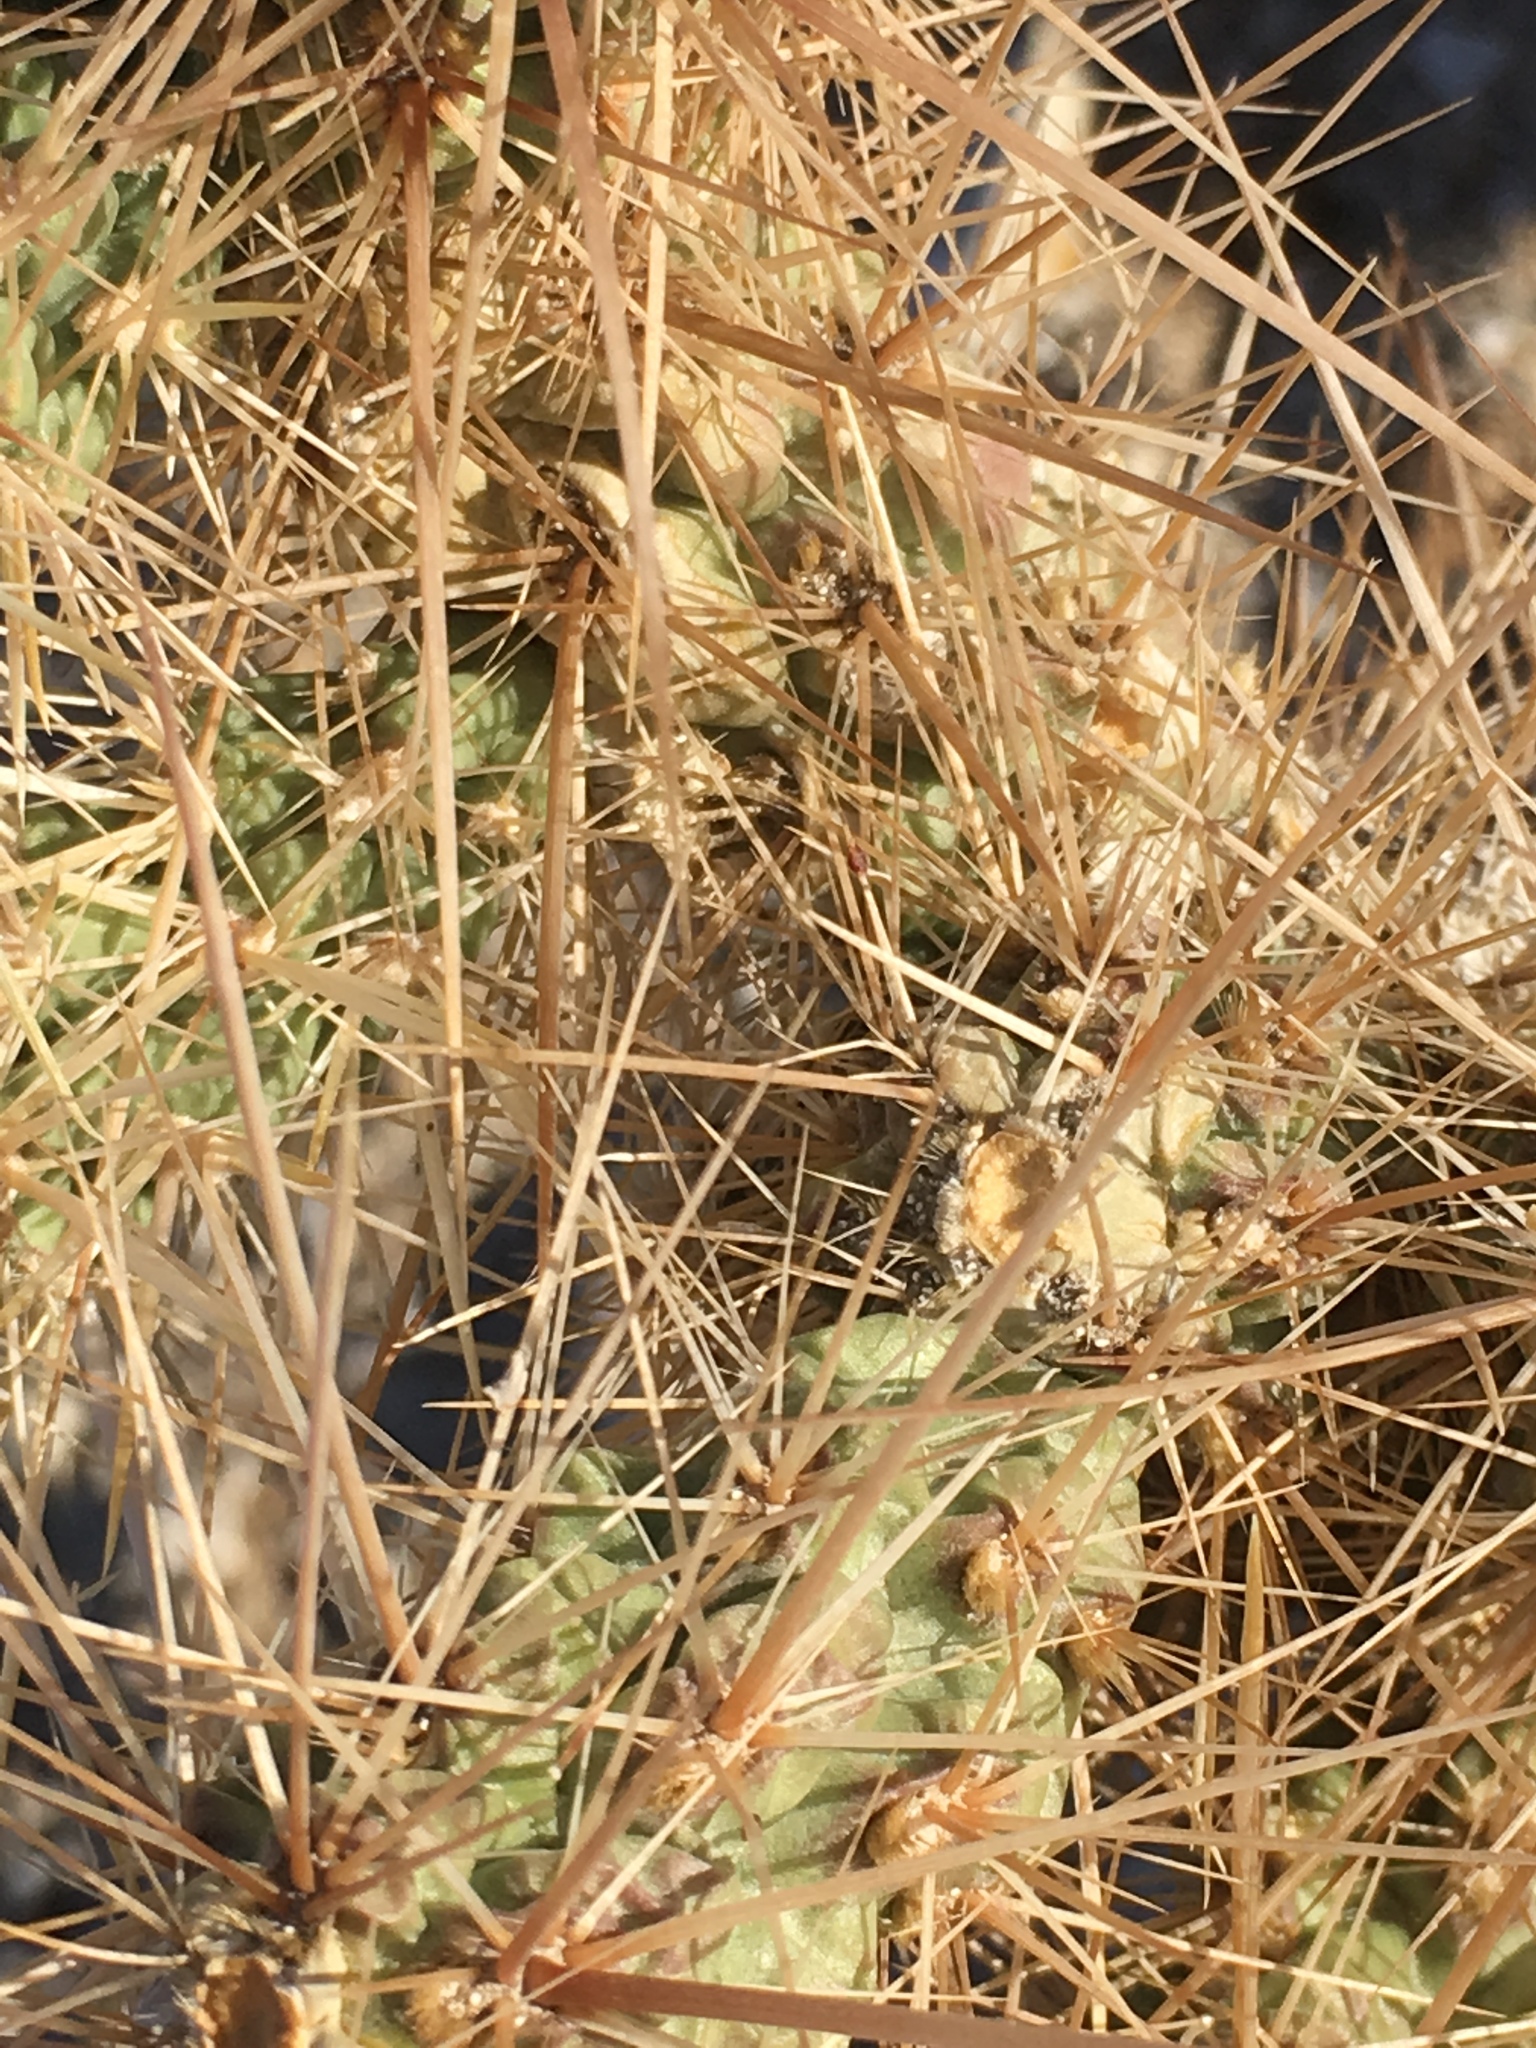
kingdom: Plantae
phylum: Tracheophyta
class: Magnoliopsida
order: Caryophyllales
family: Cactaceae
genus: Cylindropuntia
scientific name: Cylindropuntia echinocarpa
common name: Ground cholla
